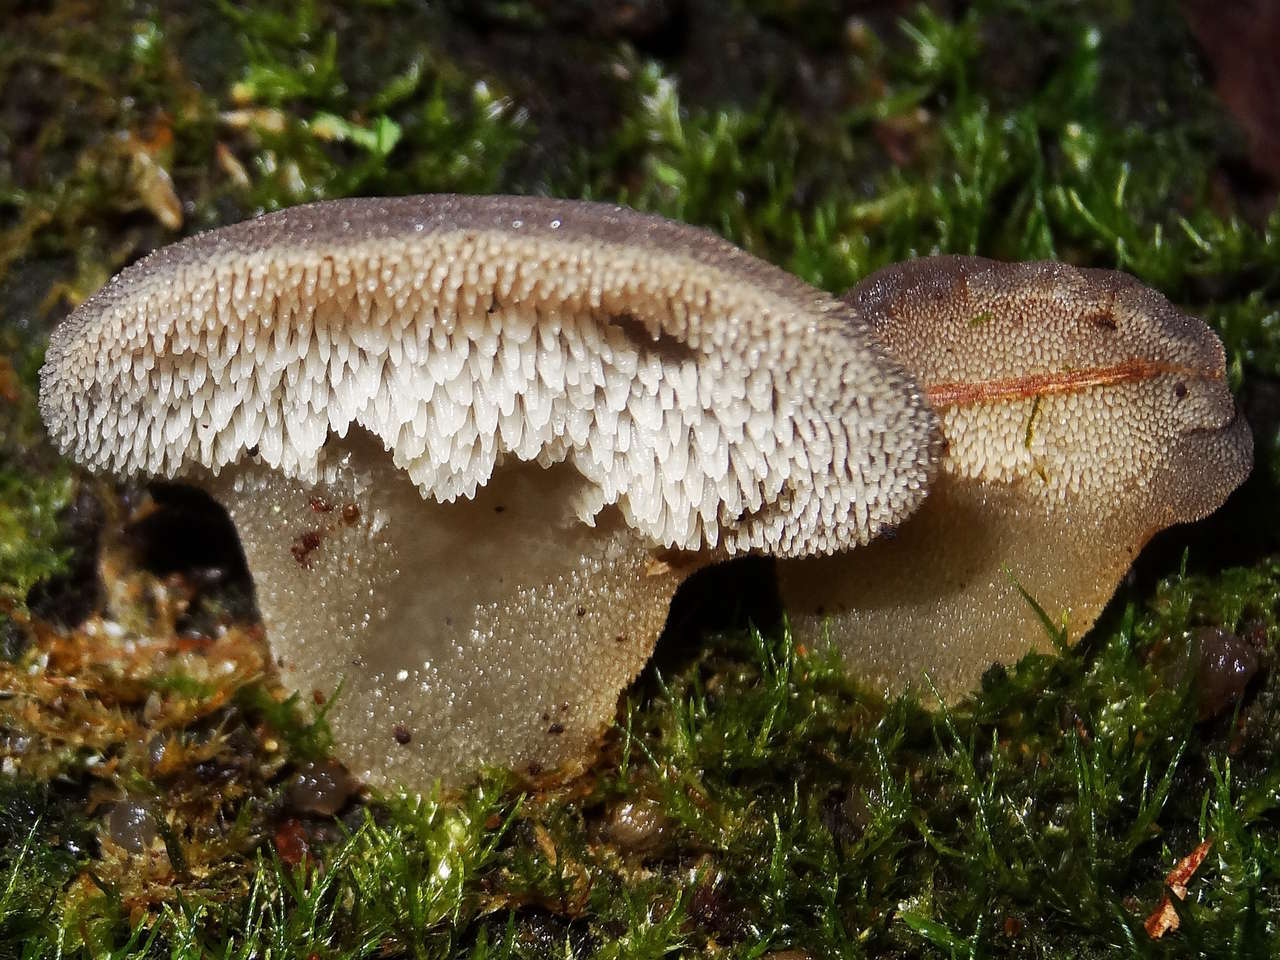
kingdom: Fungi
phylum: Basidiomycota
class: Agaricomycetes
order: Auriculariales
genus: Pseudohydnum
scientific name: Pseudohydnum gelatinosum
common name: Jelly tongue
